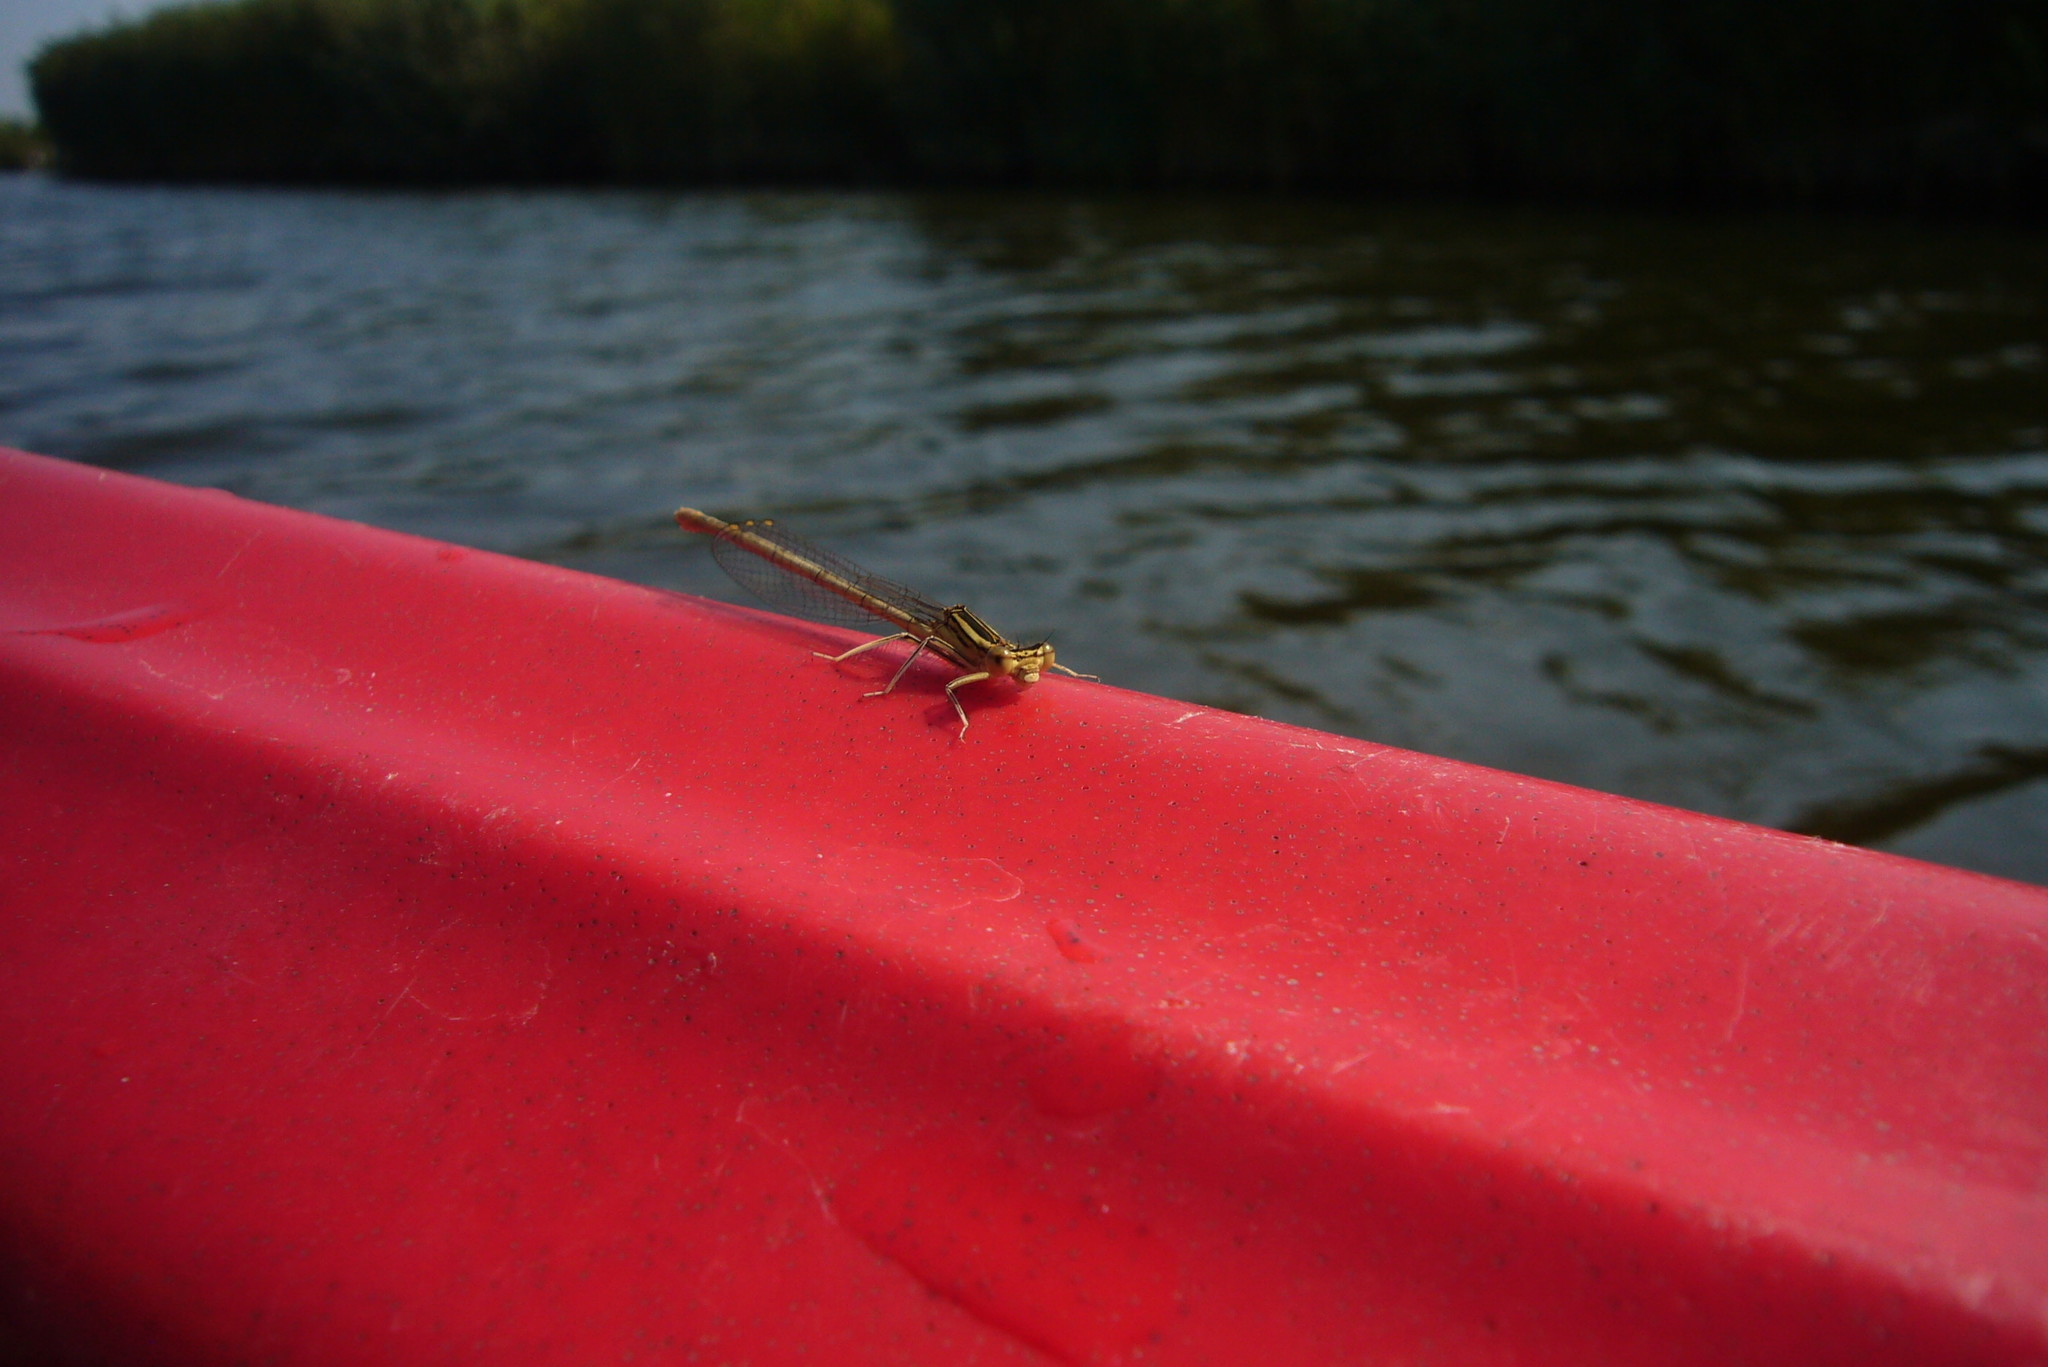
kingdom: Animalia
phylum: Arthropoda
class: Insecta
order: Odonata
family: Platycnemididae
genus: Platycnemis
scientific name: Platycnemis pennipes
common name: White-legged damselfly
